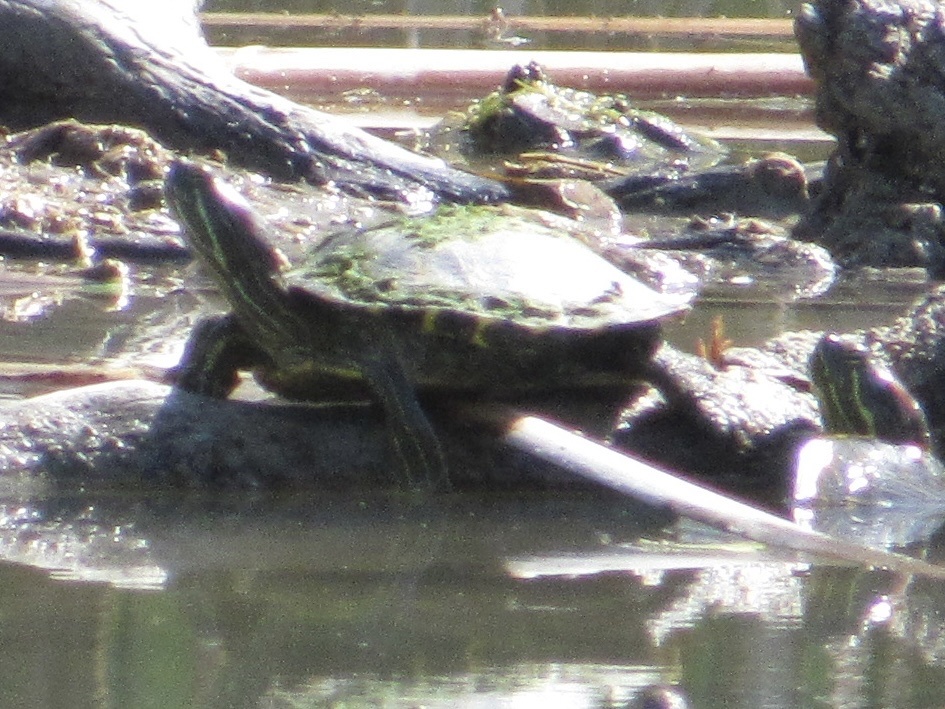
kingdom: Animalia
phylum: Chordata
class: Testudines
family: Emydidae
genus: Trachemys
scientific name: Trachemys scripta
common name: Slider
